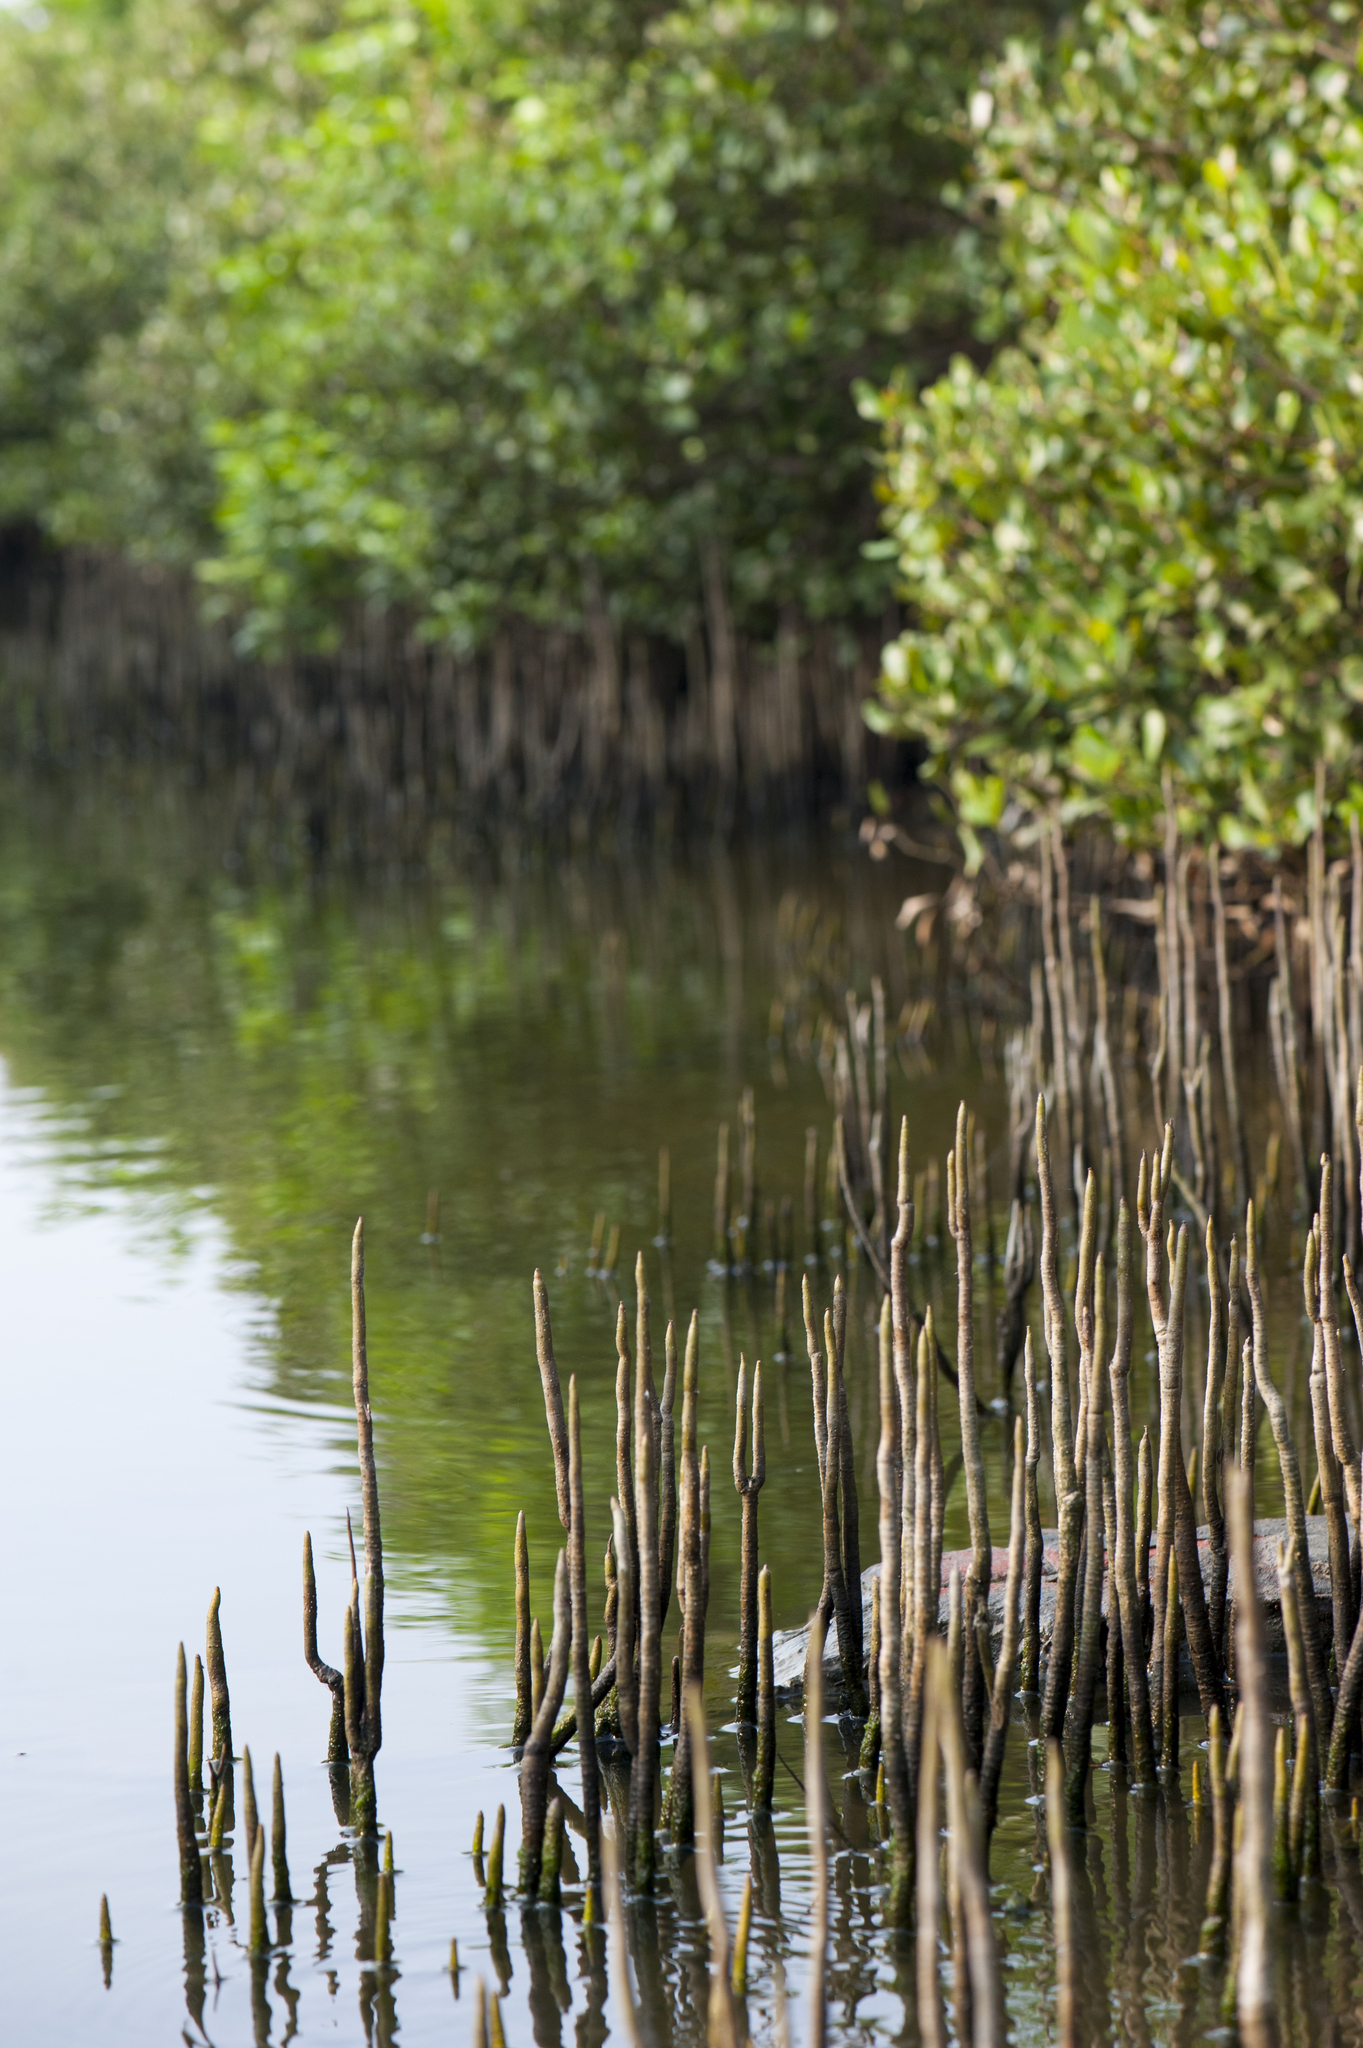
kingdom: Plantae
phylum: Tracheophyta
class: Magnoliopsida
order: Lamiales
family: Acanthaceae
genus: Avicennia
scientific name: Avicennia marina
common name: Gray mangrove
